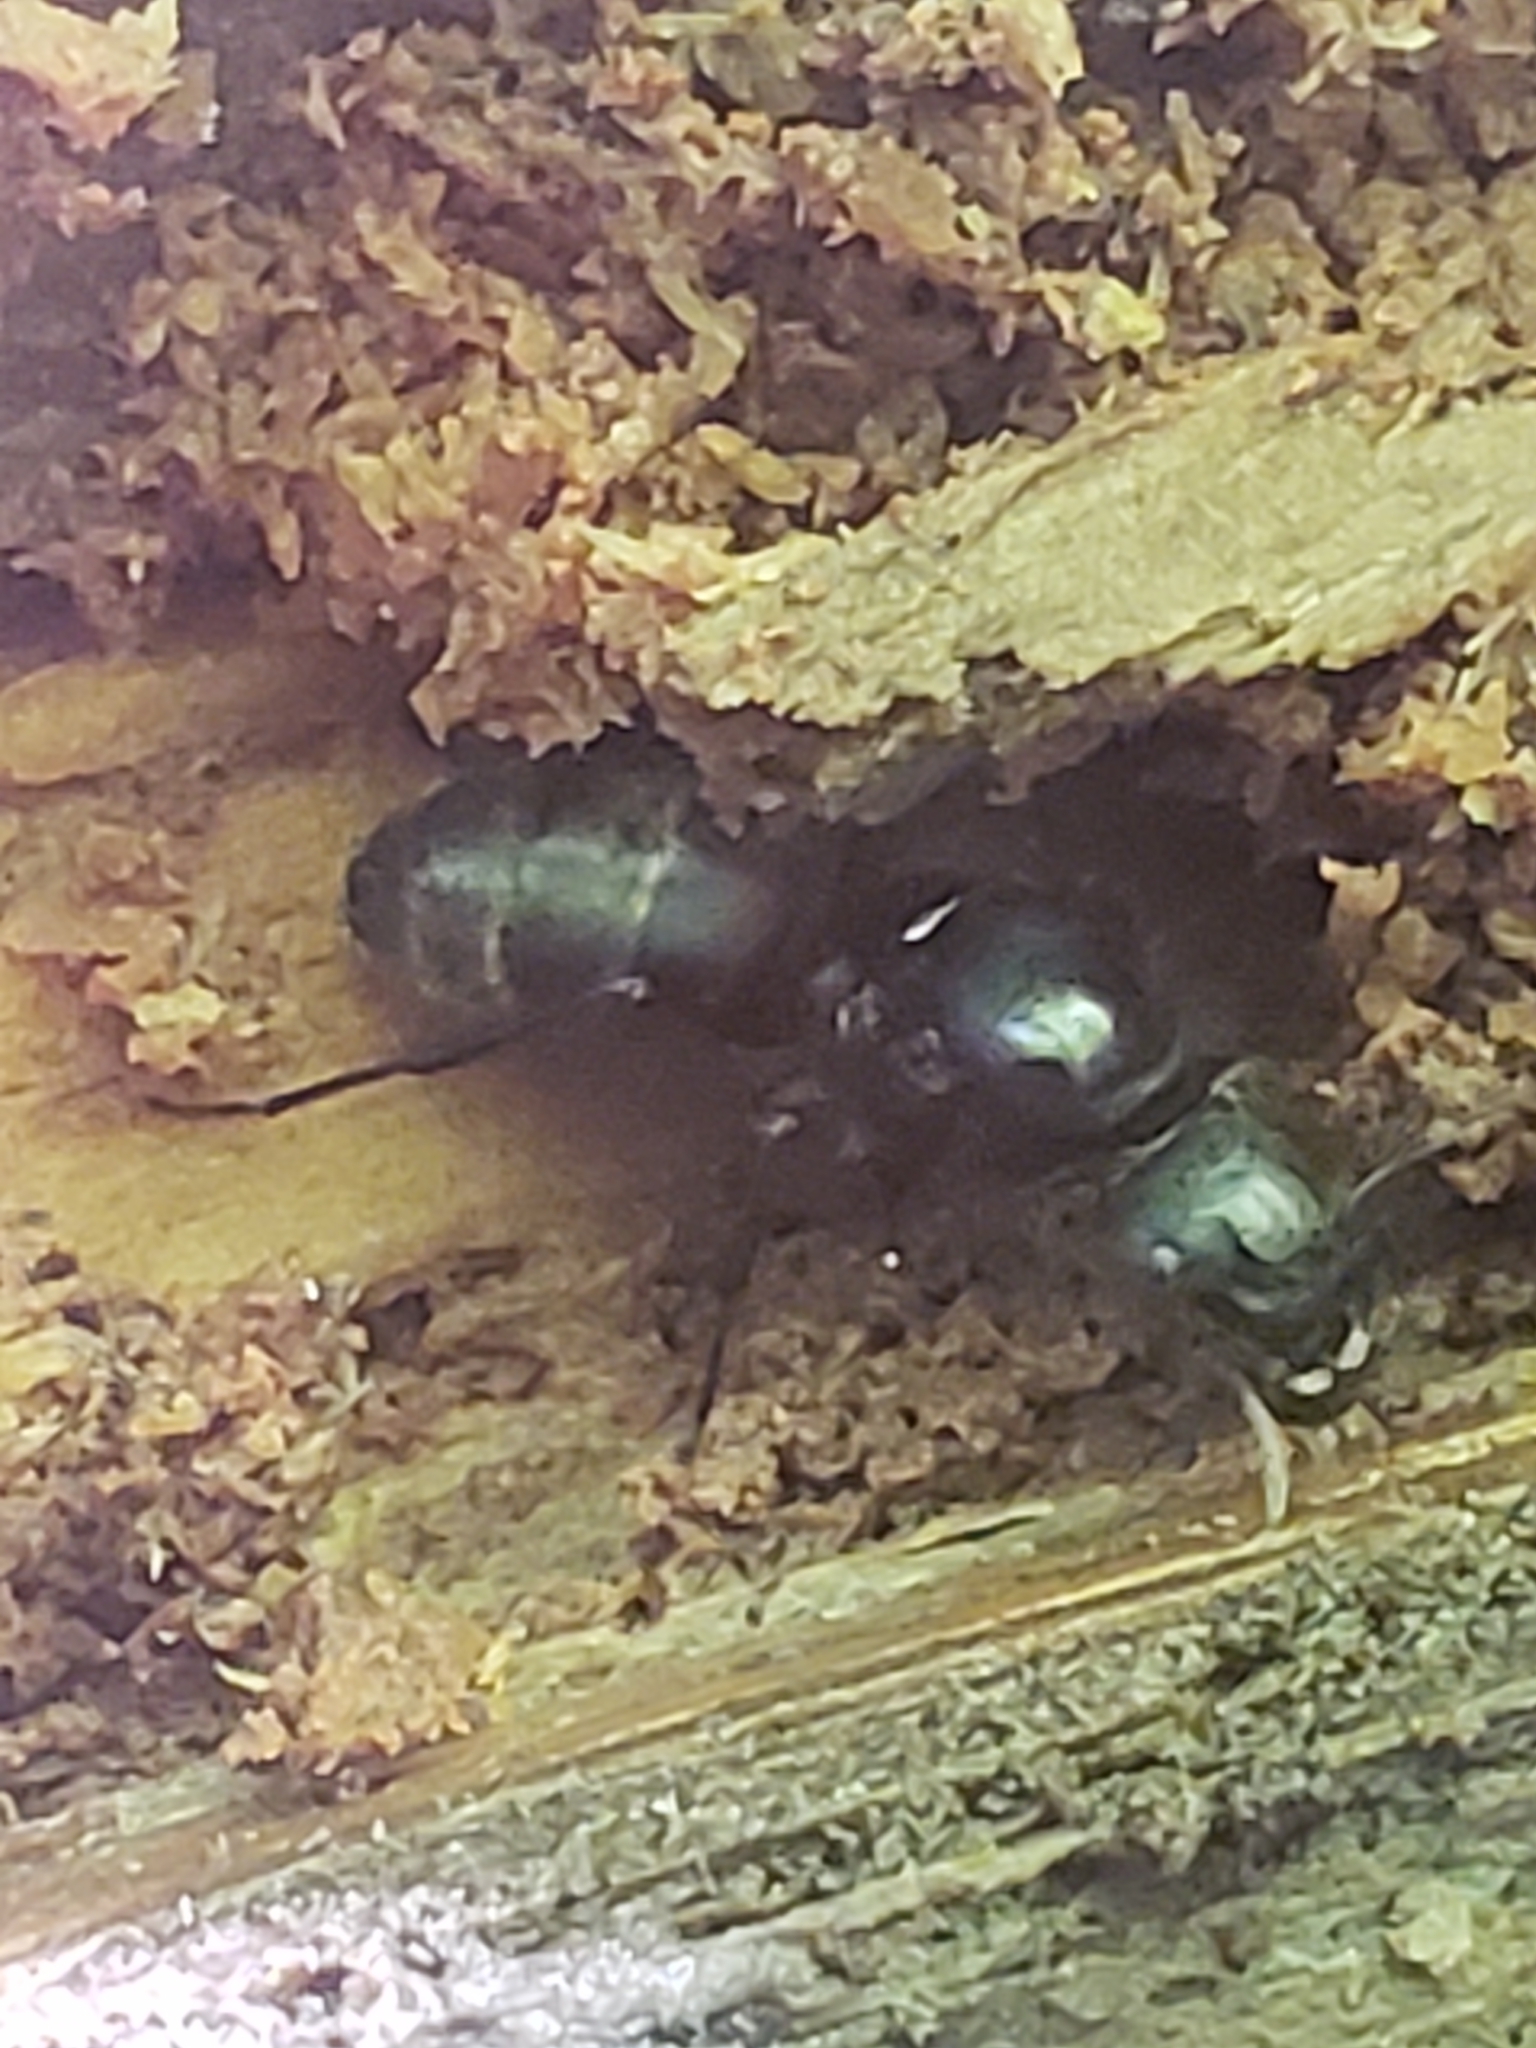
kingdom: Animalia
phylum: Arthropoda
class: Insecta
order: Hymenoptera
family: Formicidae
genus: Camponotus
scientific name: Camponotus chromaiodes
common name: Red carpenter ant
